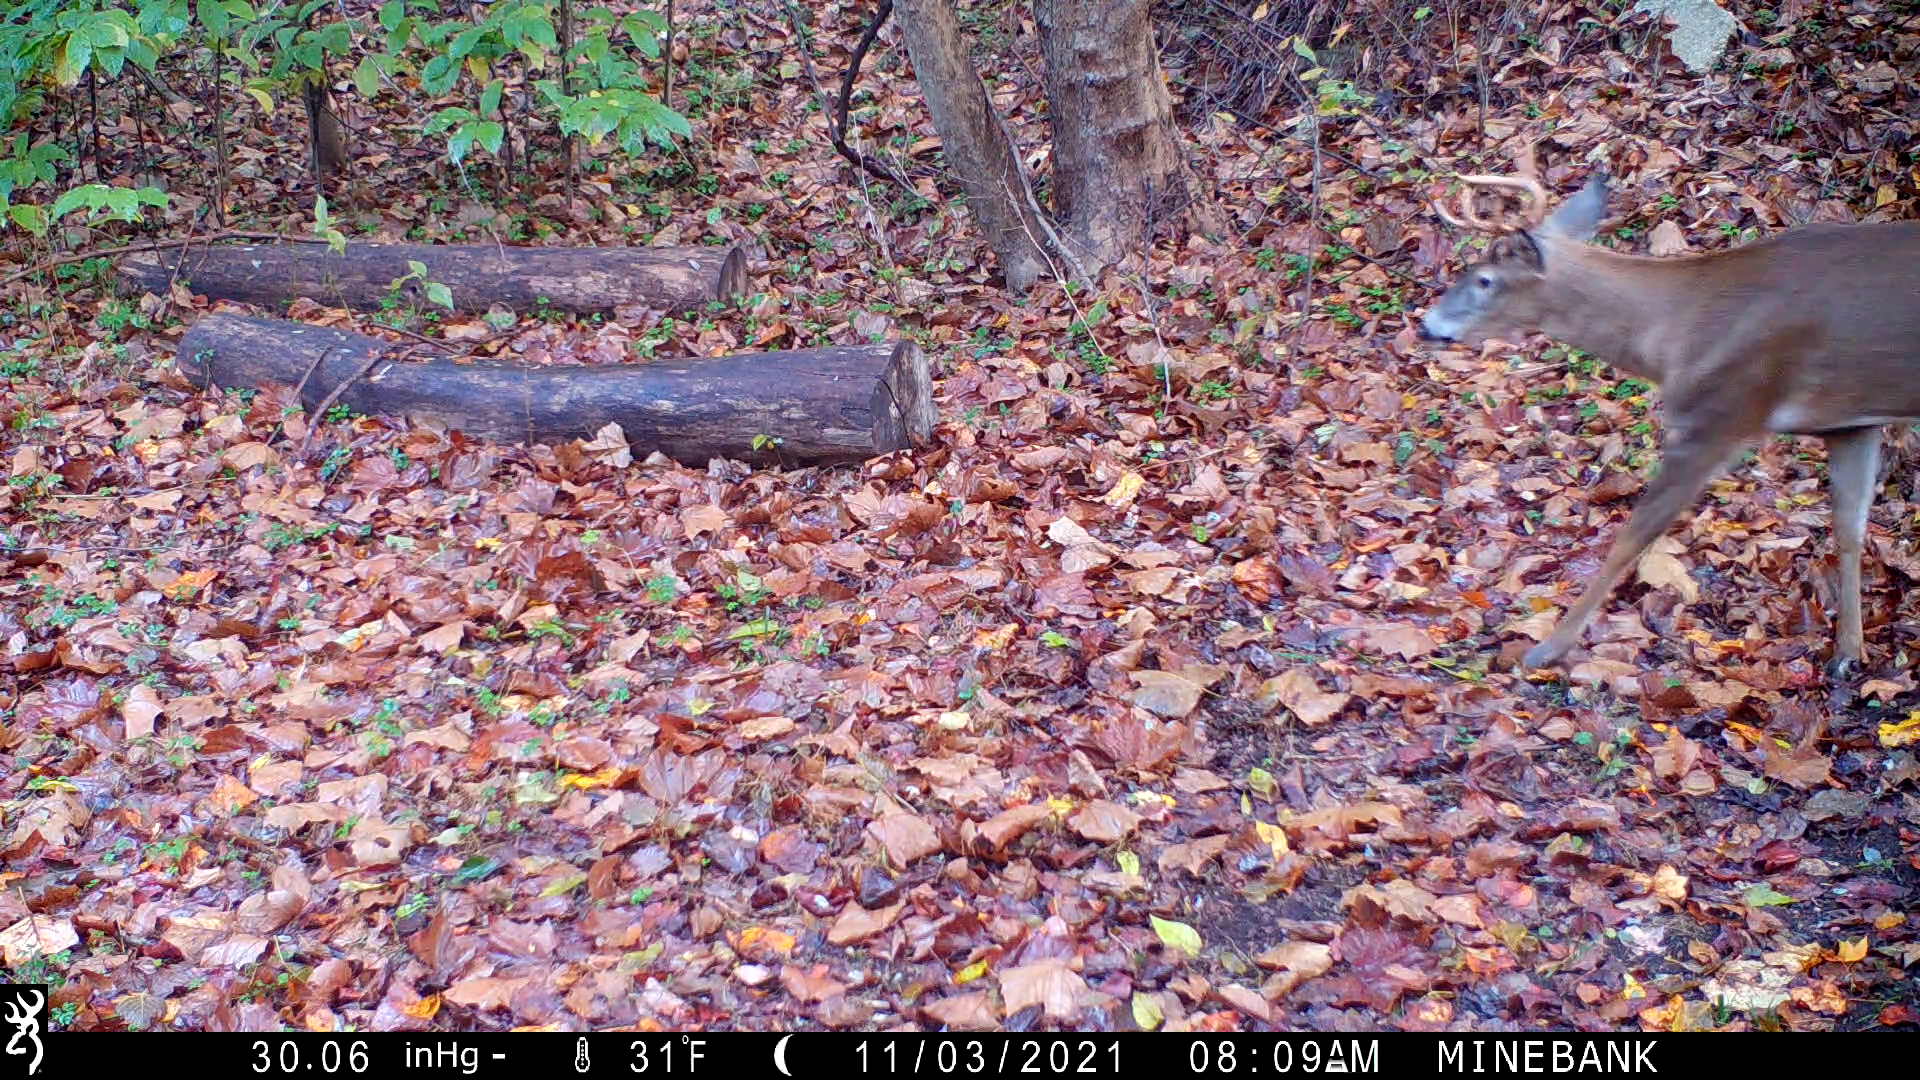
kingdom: Animalia
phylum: Chordata
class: Mammalia
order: Artiodactyla
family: Cervidae
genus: Odocoileus
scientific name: Odocoileus virginianus
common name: White-tailed deer
